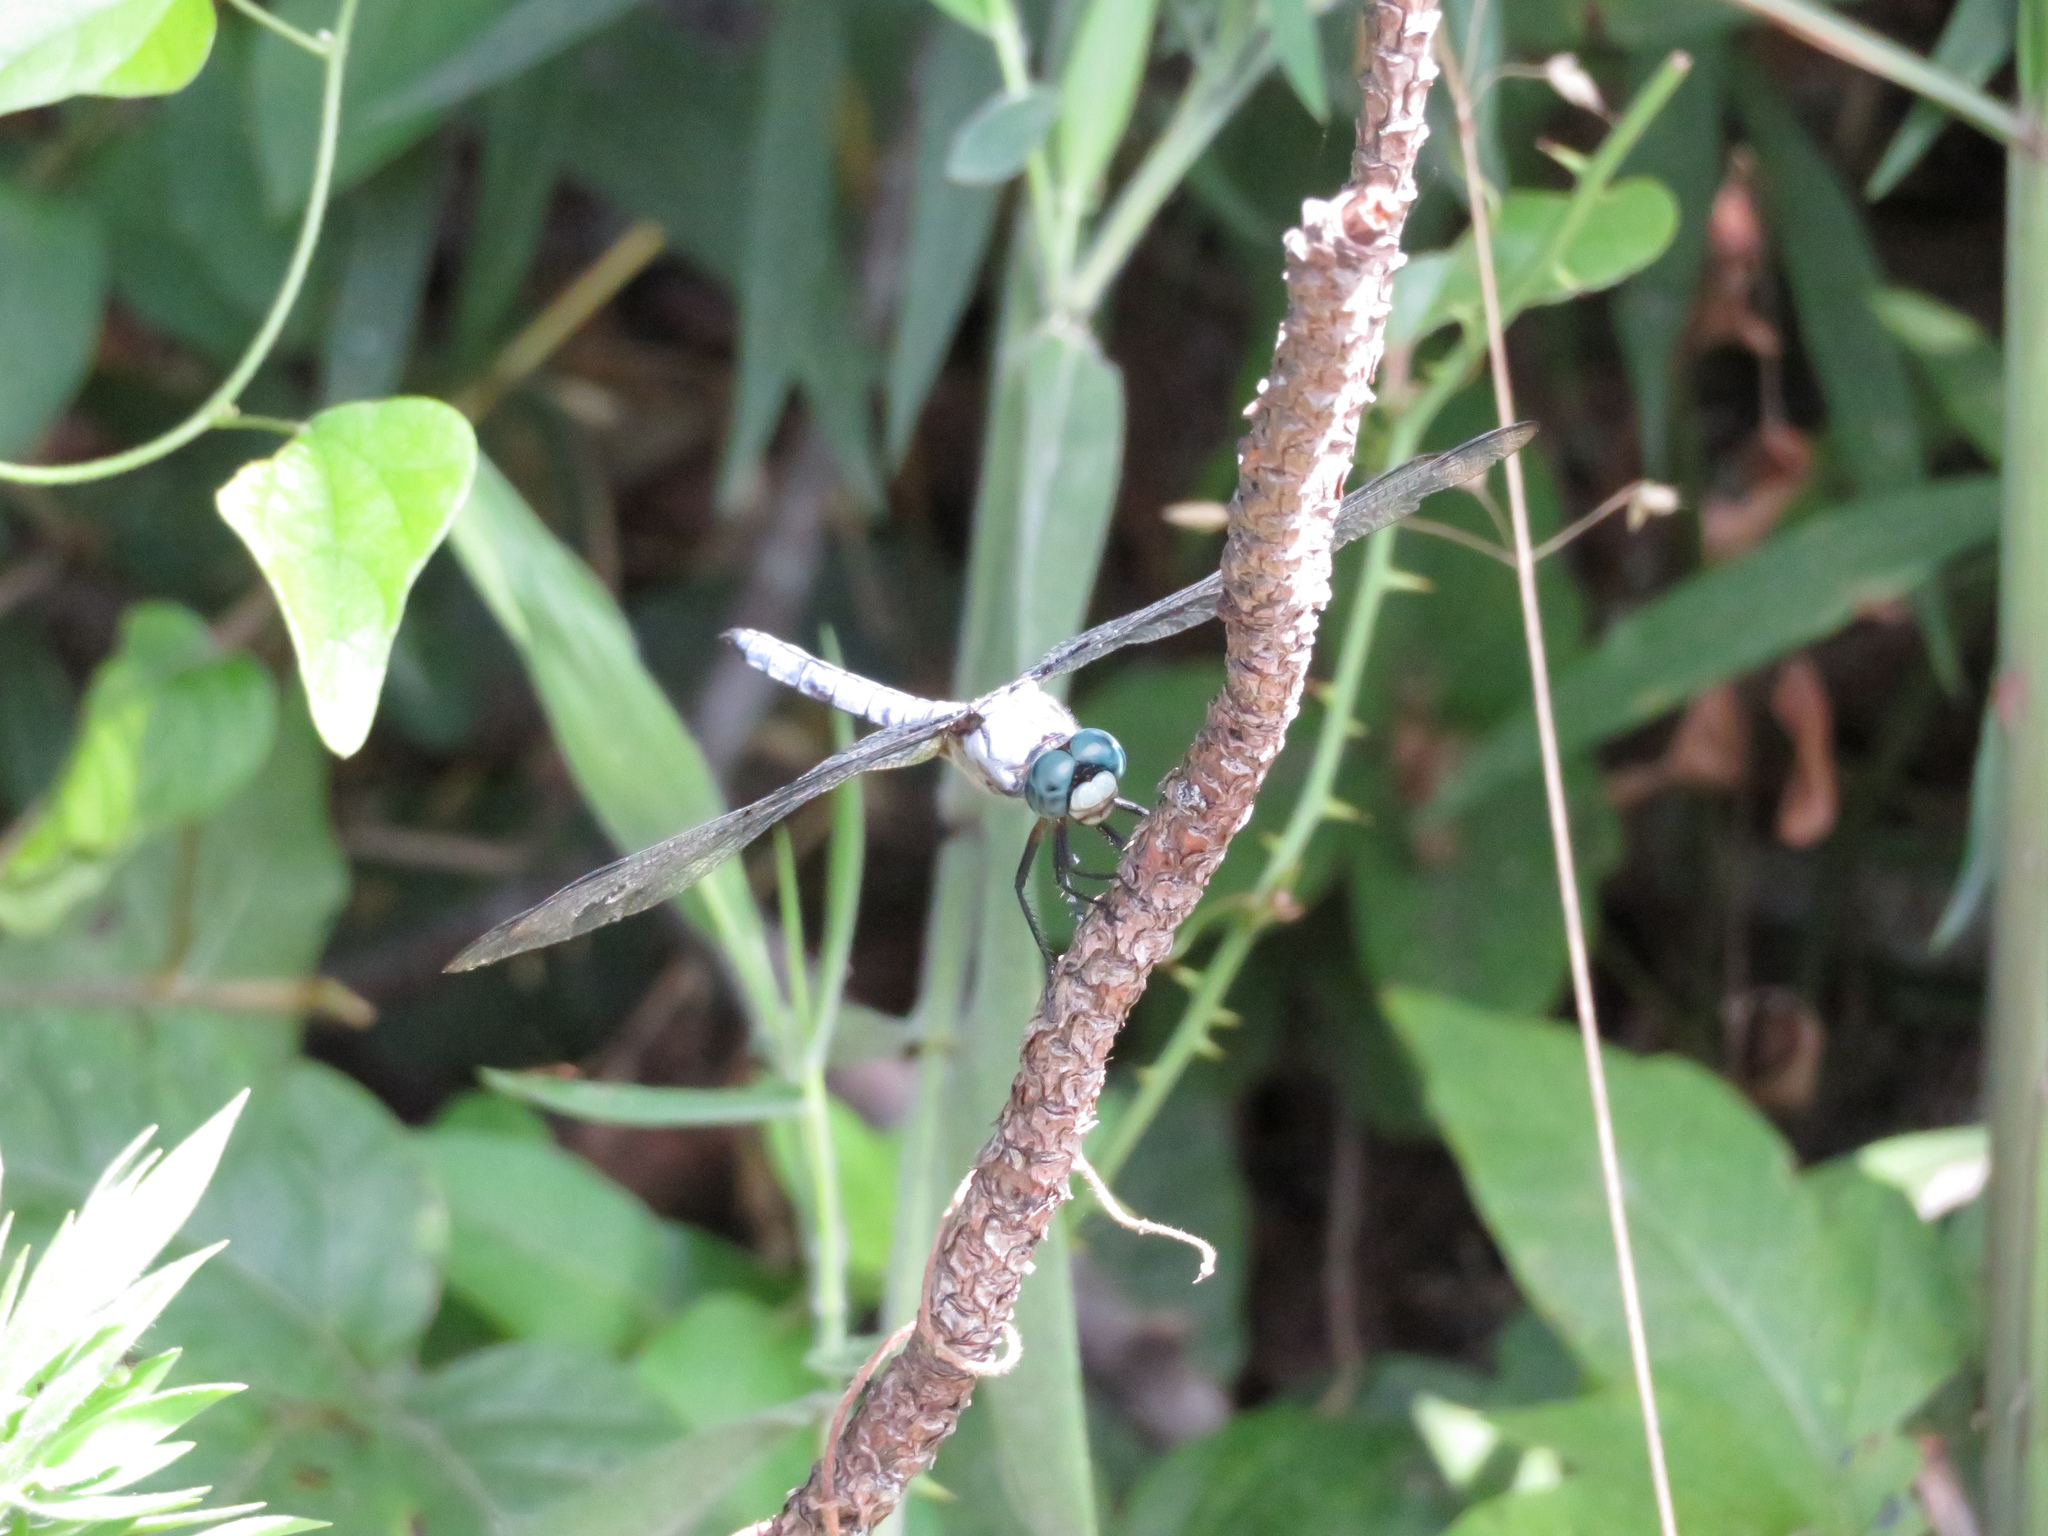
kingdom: Animalia
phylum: Arthropoda
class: Insecta
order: Odonata
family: Libellulidae
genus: Libellula
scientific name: Libellula vibrans
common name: Great blue skimmer
